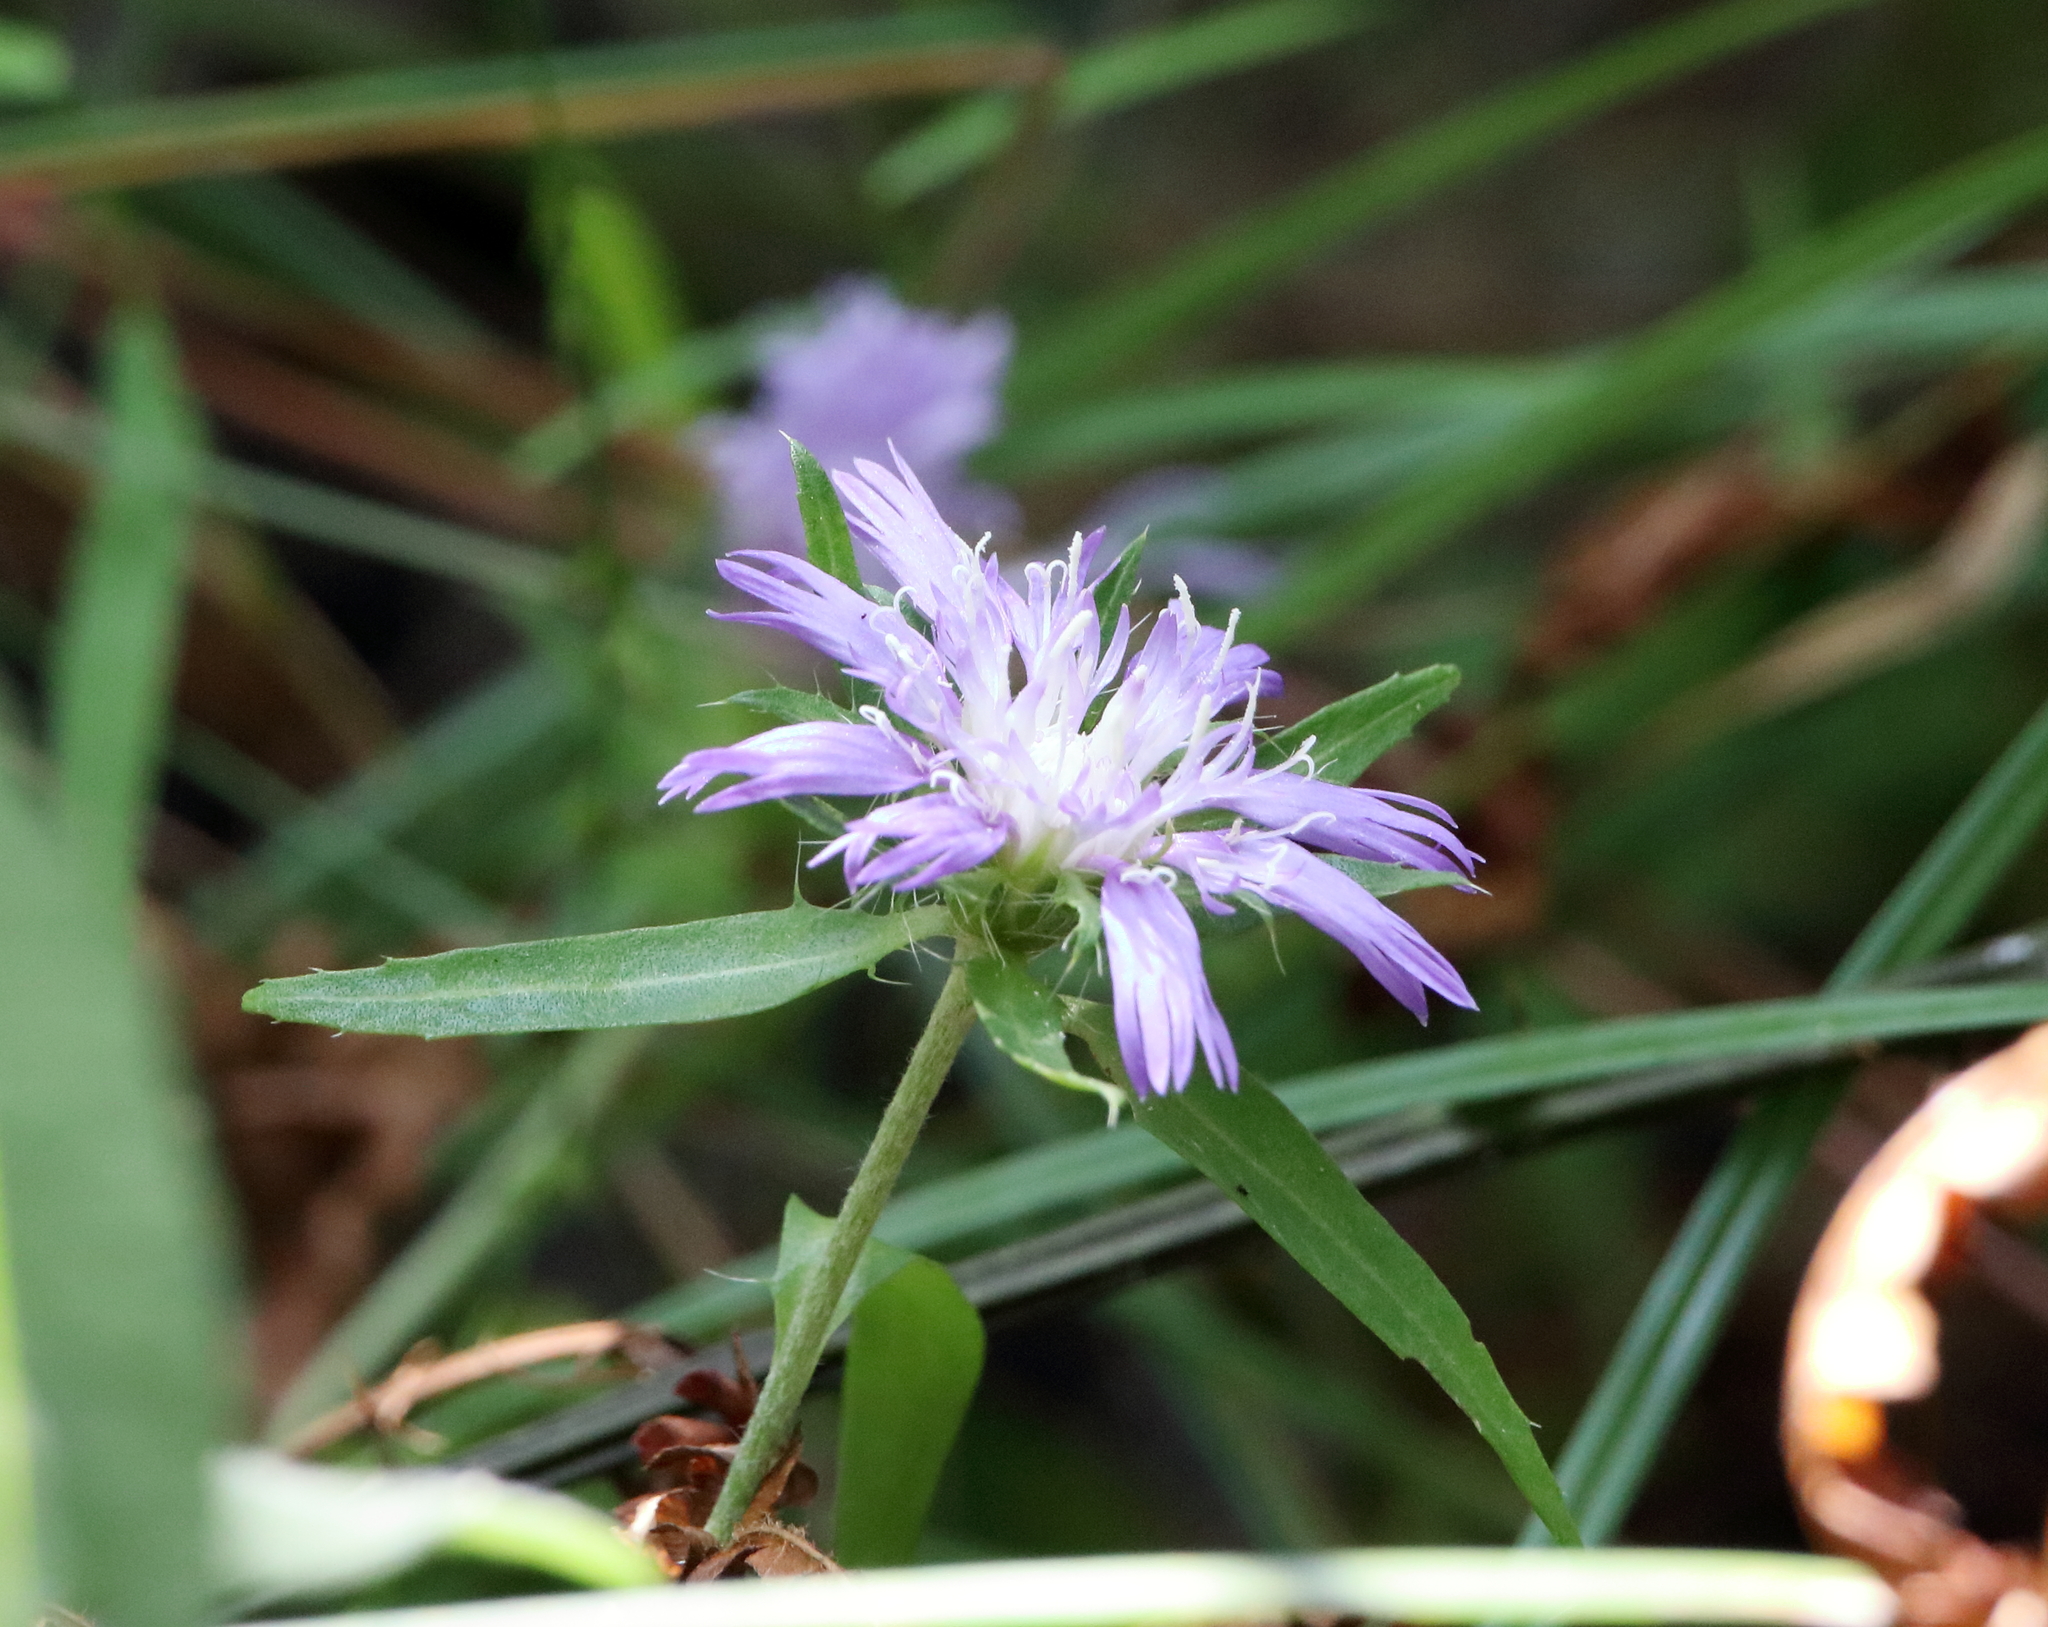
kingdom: Plantae
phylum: Tracheophyta
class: Magnoliopsida
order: Asterales
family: Asteraceae
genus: Stokesia
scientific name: Stokesia laevis
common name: Stokes'-aster
